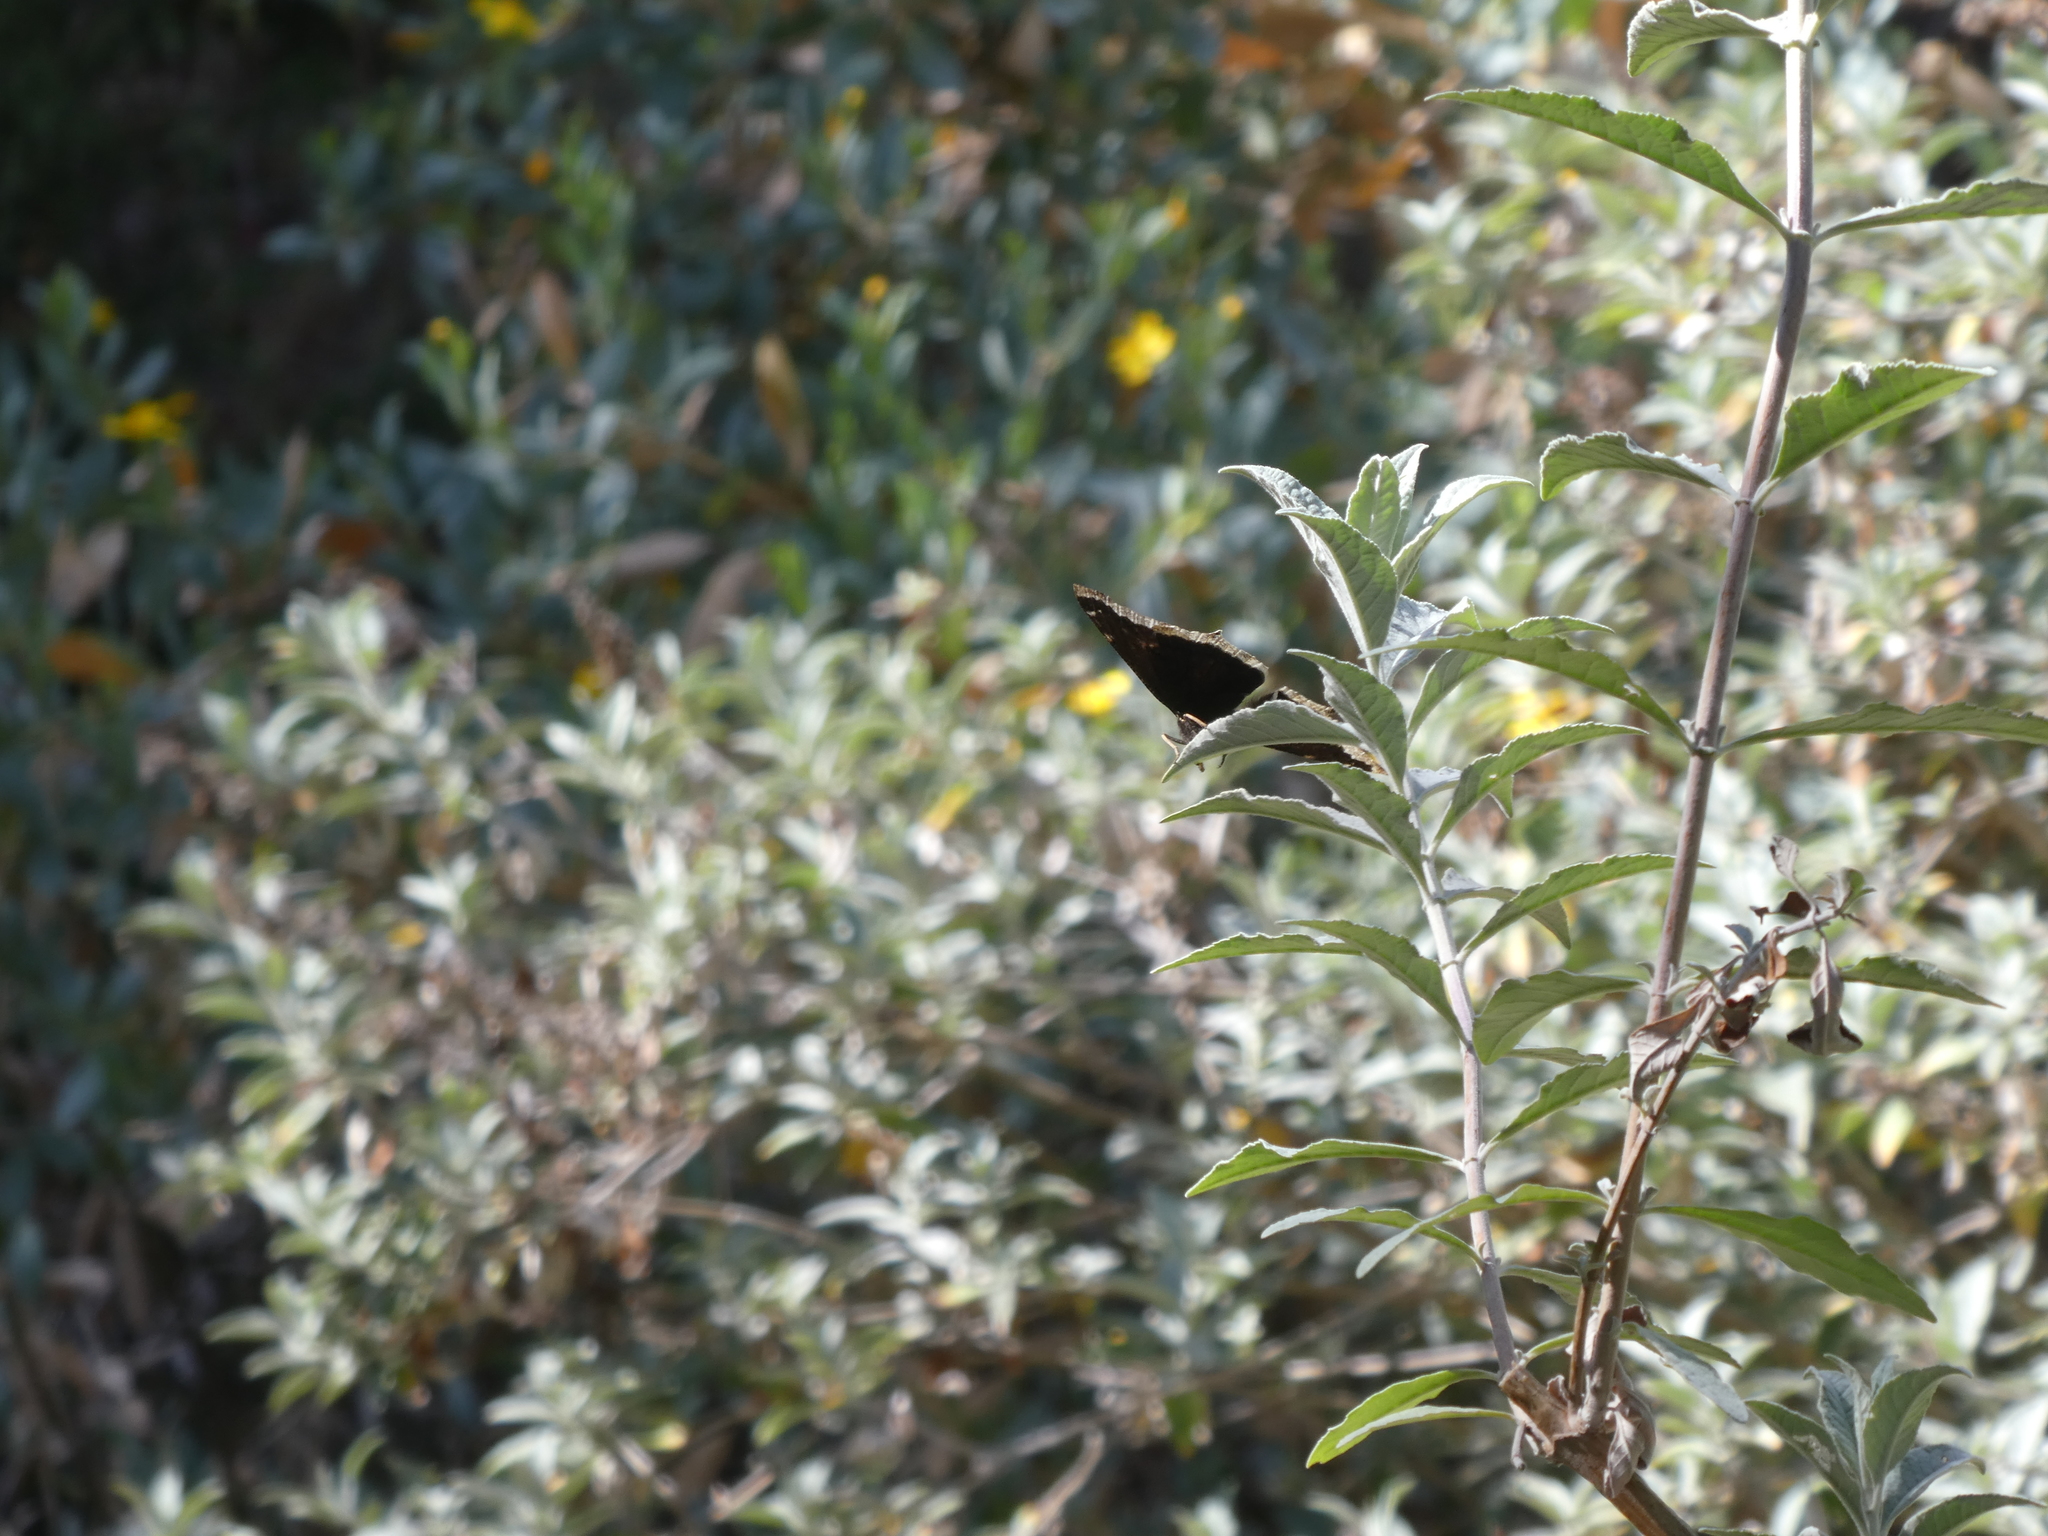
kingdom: Animalia
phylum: Arthropoda
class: Insecta
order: Lepidoptera
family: Nymphalidae
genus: Nymphalis
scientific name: Nymphalis antiopa
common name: Camberwell beauty
